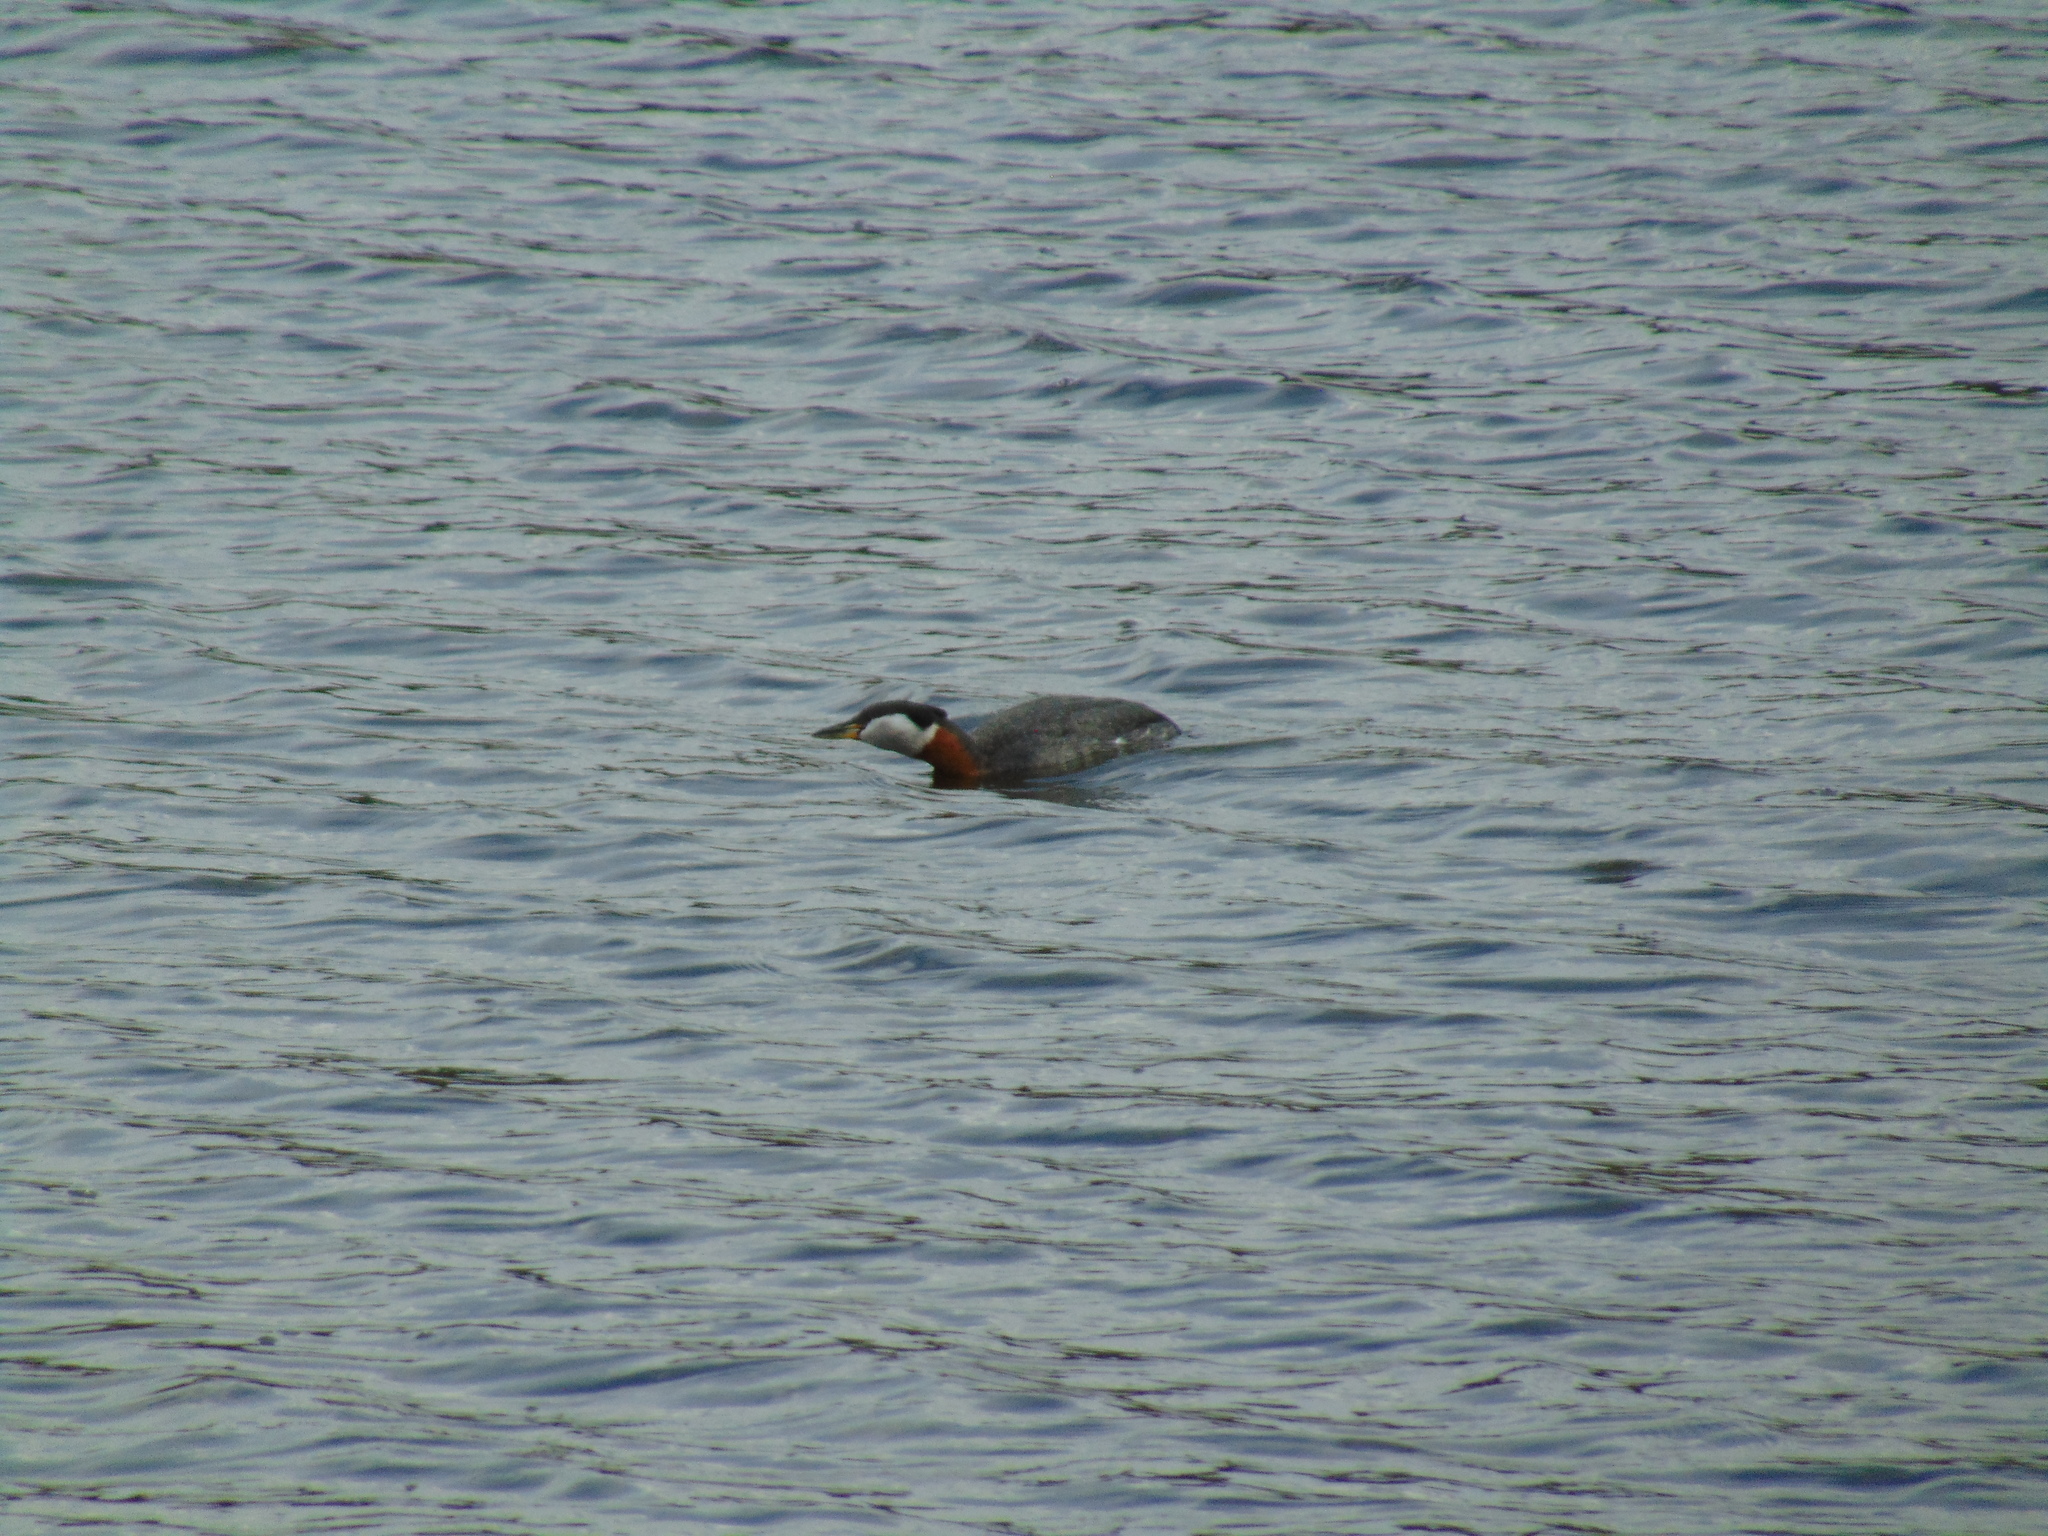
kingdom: Animalia
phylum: Chordata
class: Aves
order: Podicipediformes
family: Podicipedidae
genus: Podiceps
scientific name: Podiceps grisegena
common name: Red-necked grebe
